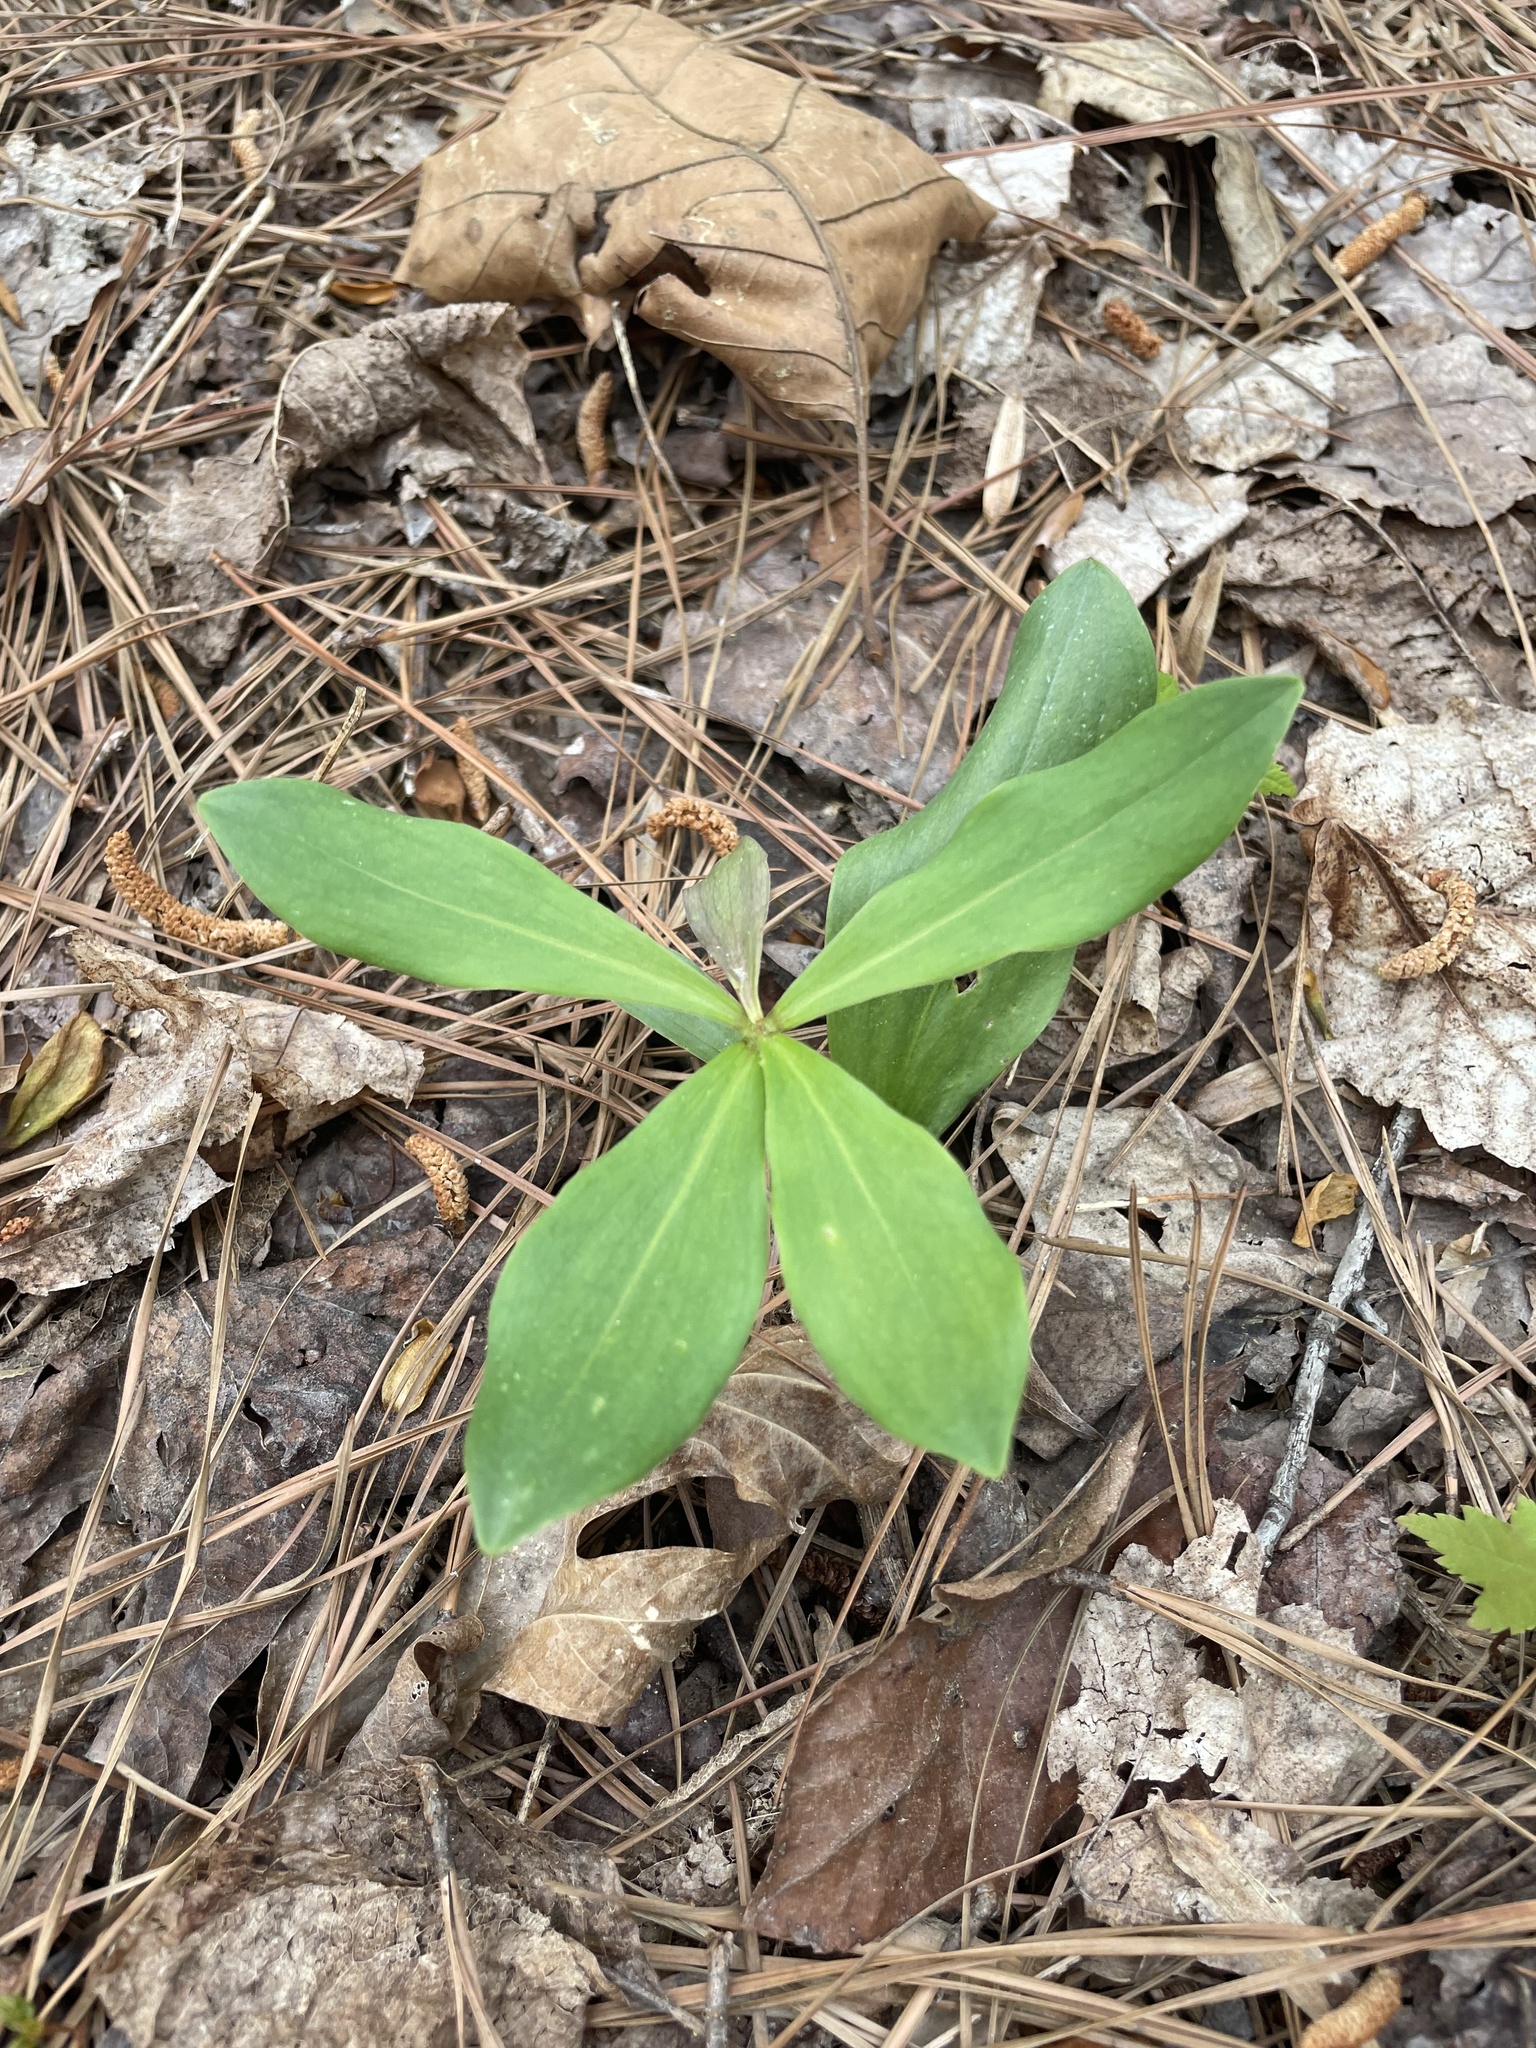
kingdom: Plantae
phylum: Tracheophyta
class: Liliopsida
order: Commelinales
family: Commelinaceae
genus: Commelina
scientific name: Commelina virginica
